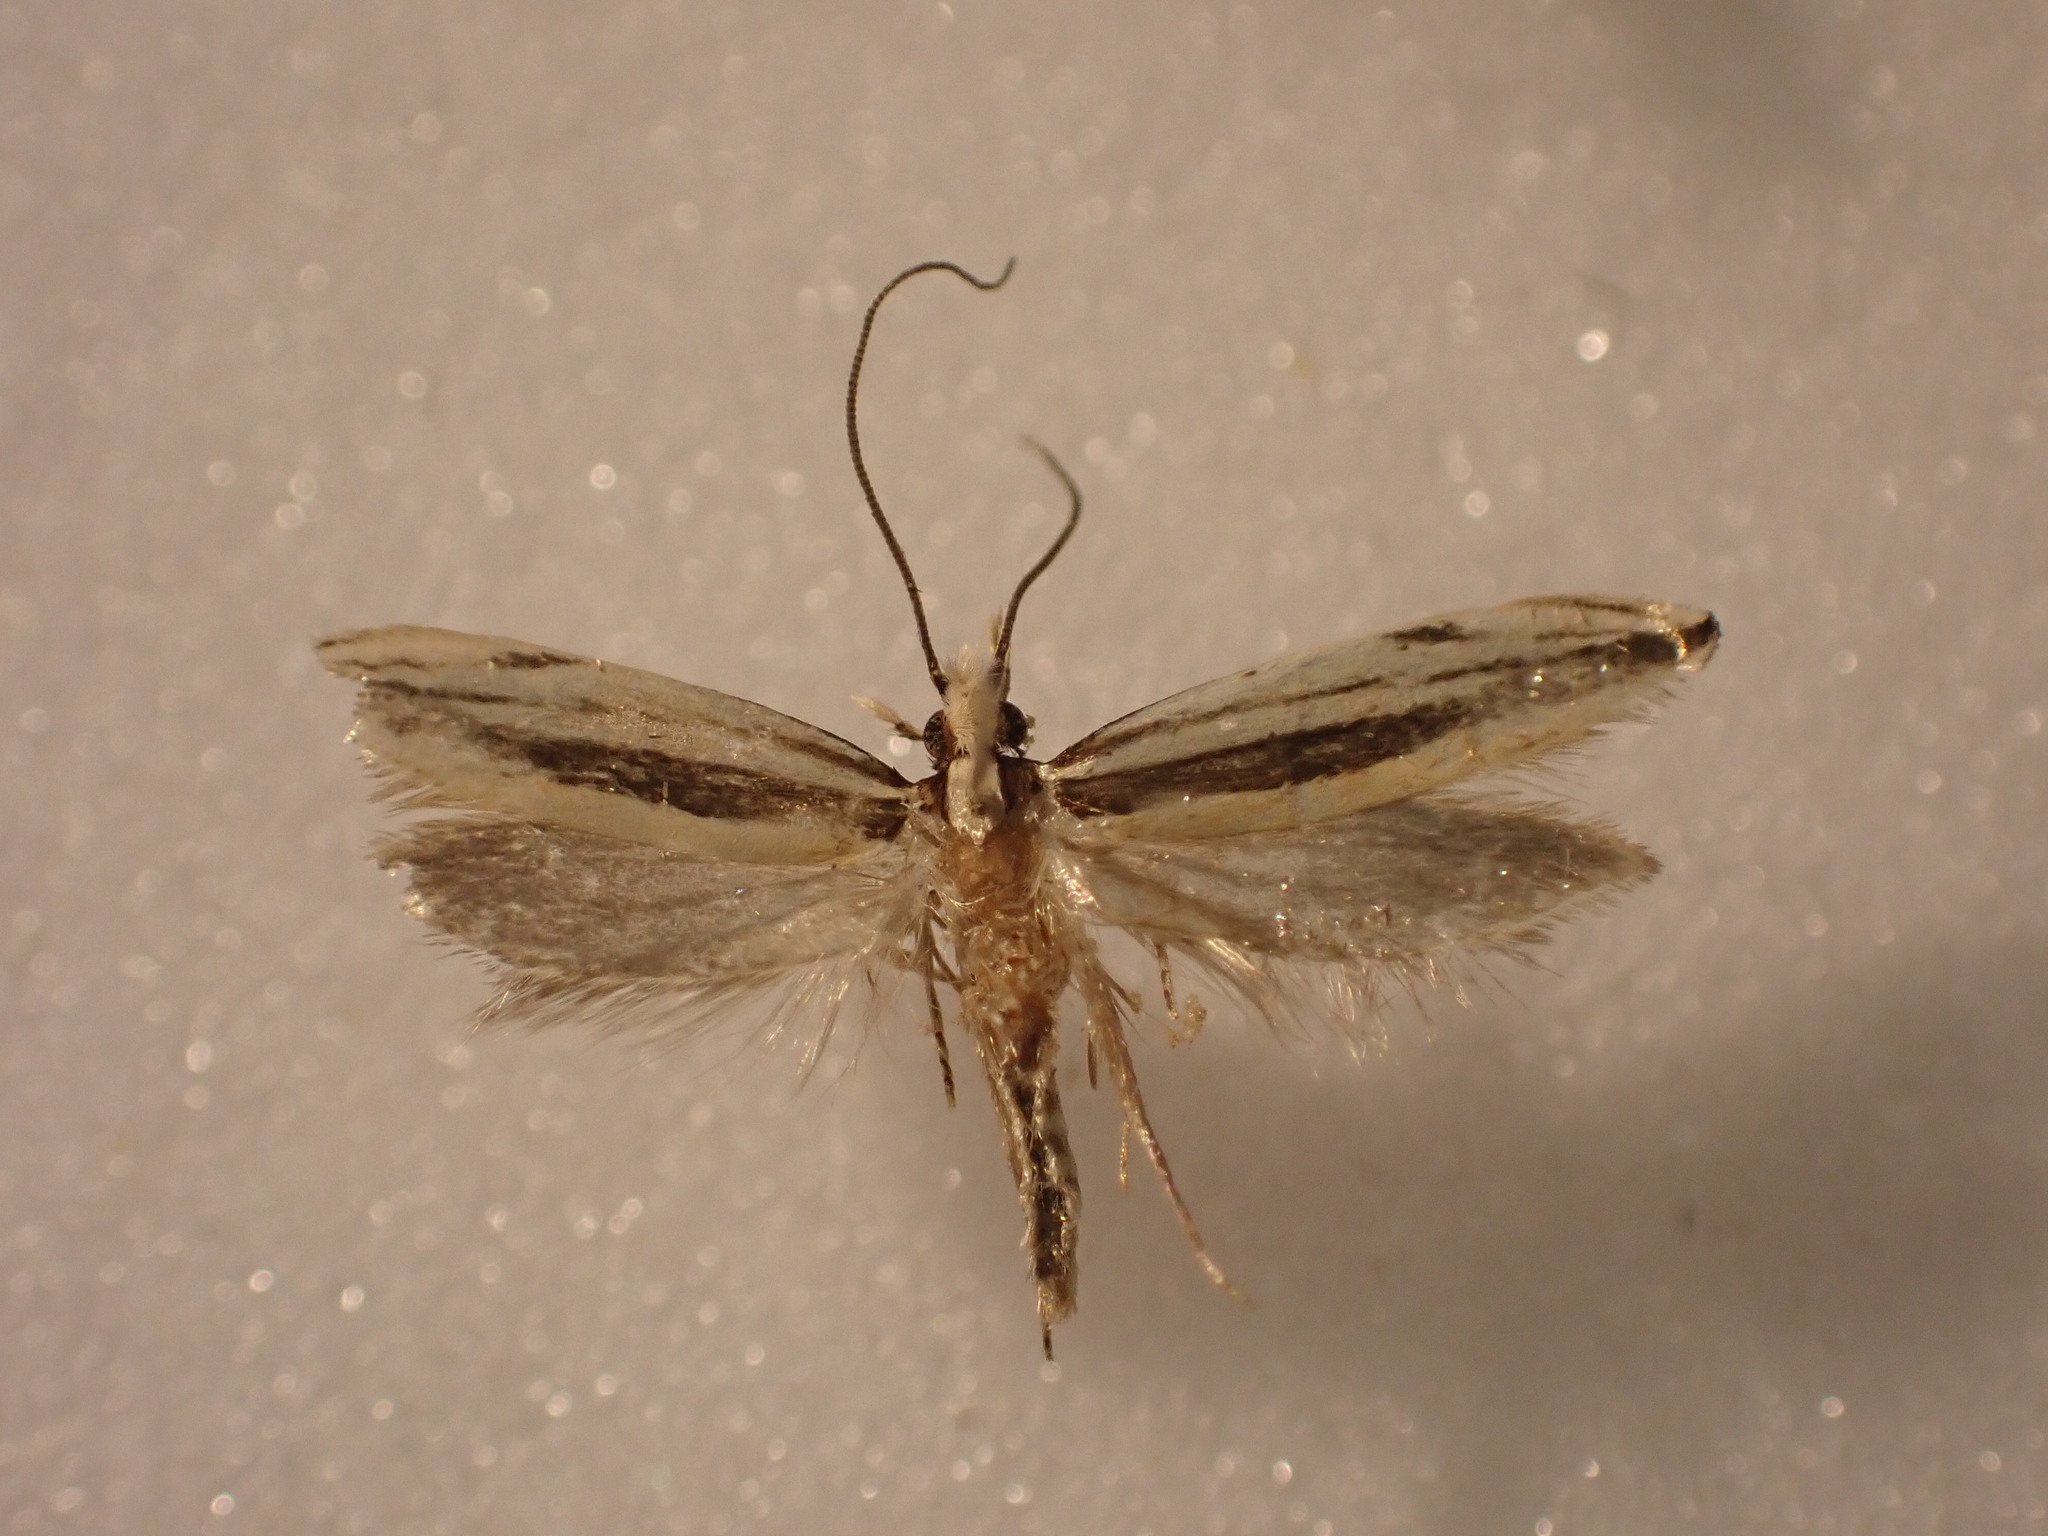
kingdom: Animalia
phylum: Arthropoda
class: Insecta
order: Lepidoptera
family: Tineidae
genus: Erechthias
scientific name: Erechthias stilbella
